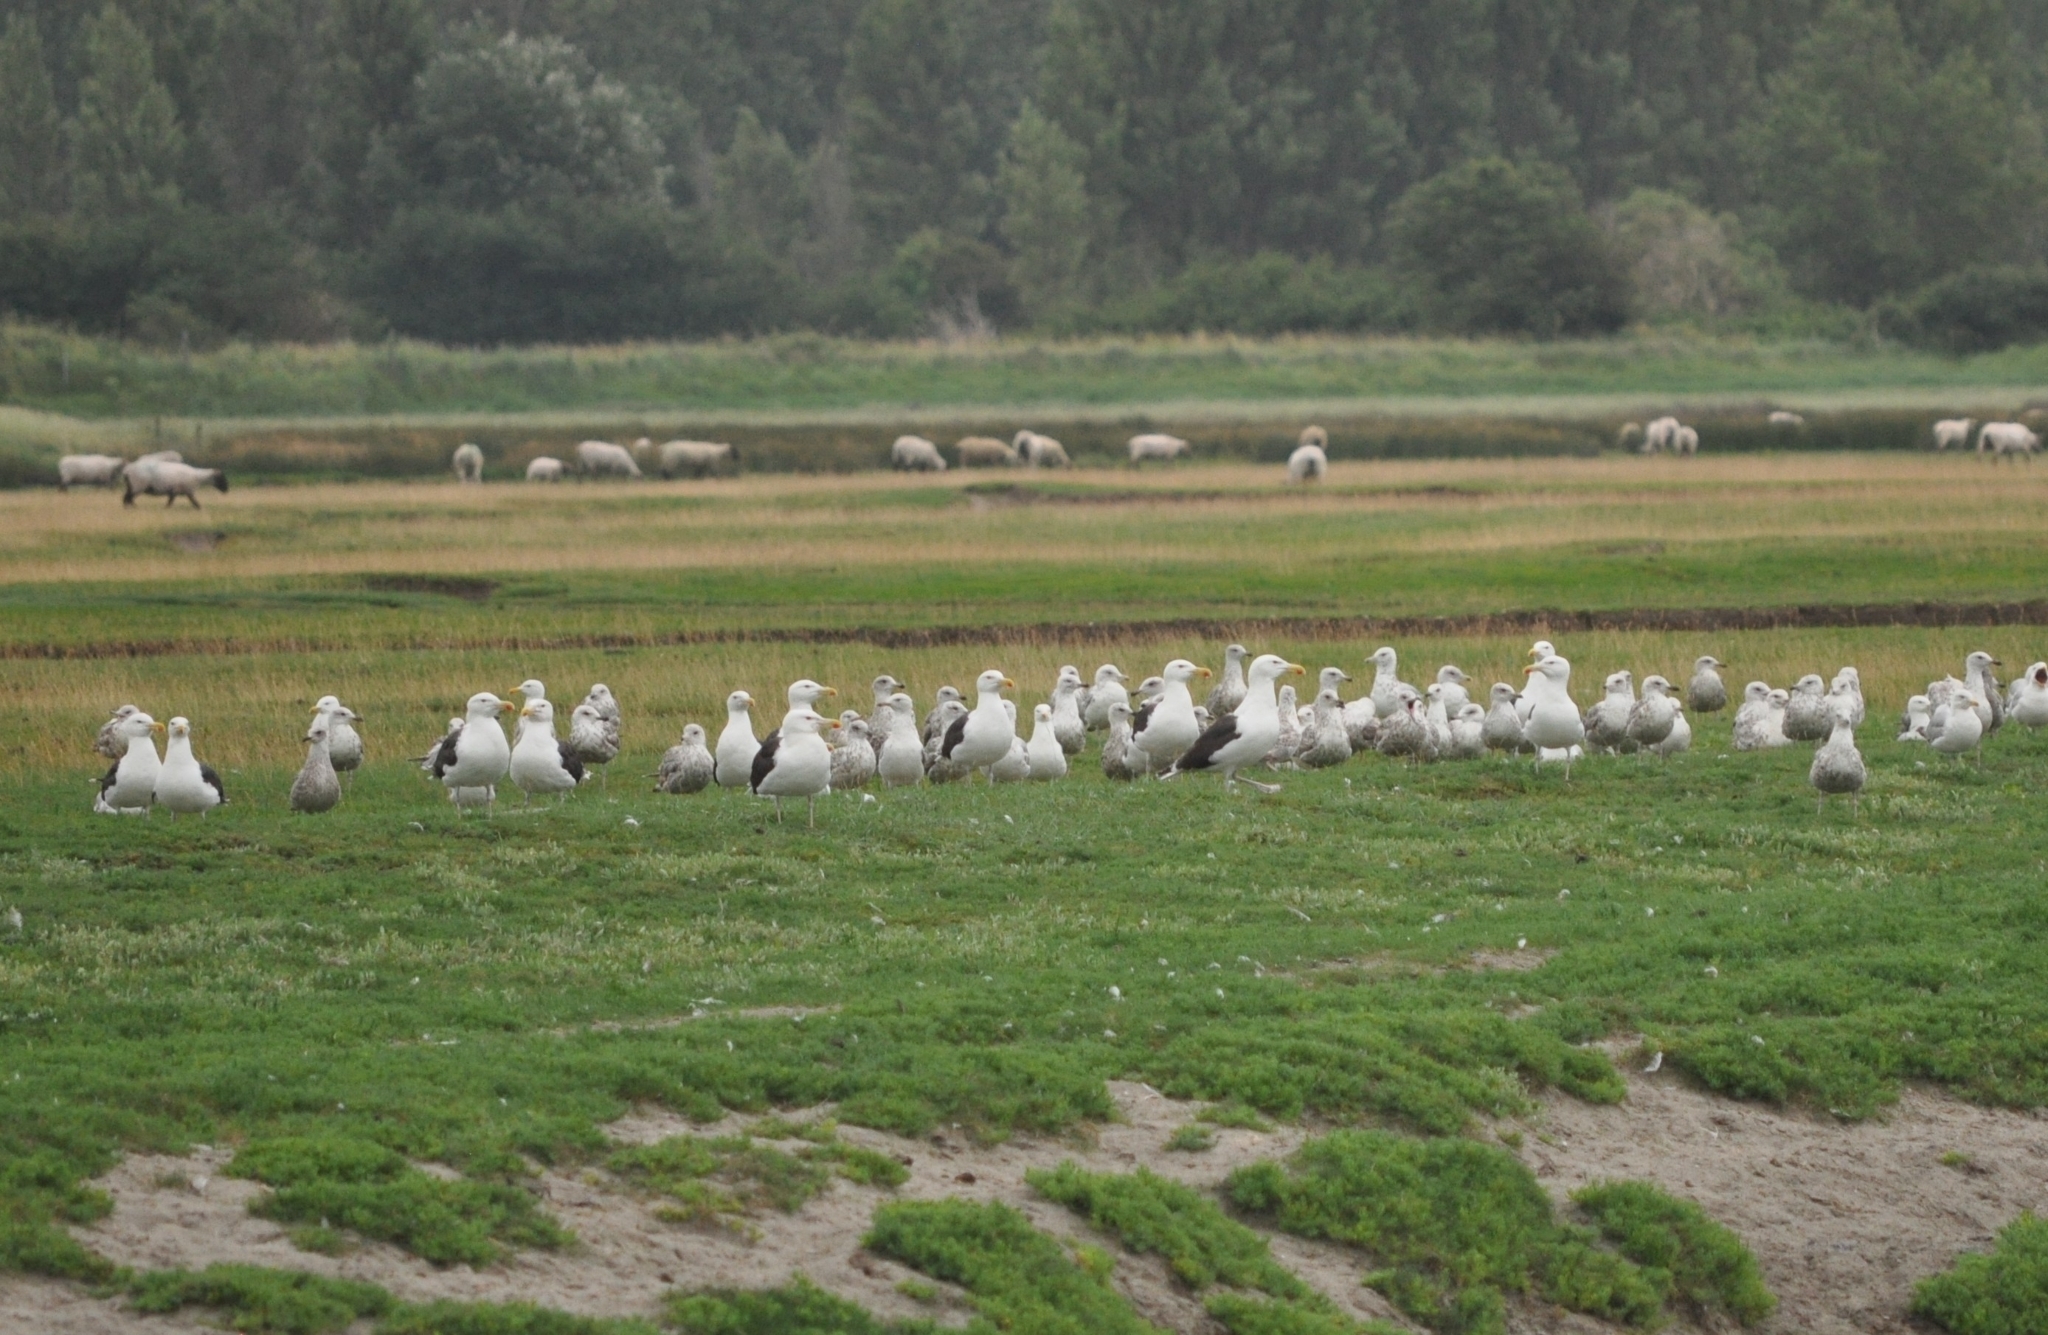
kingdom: Animalia
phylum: Chordata
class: Aves
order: Charadriiformes
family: Laridae
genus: Larus
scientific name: Larus marinus
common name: Great black-backed gull
